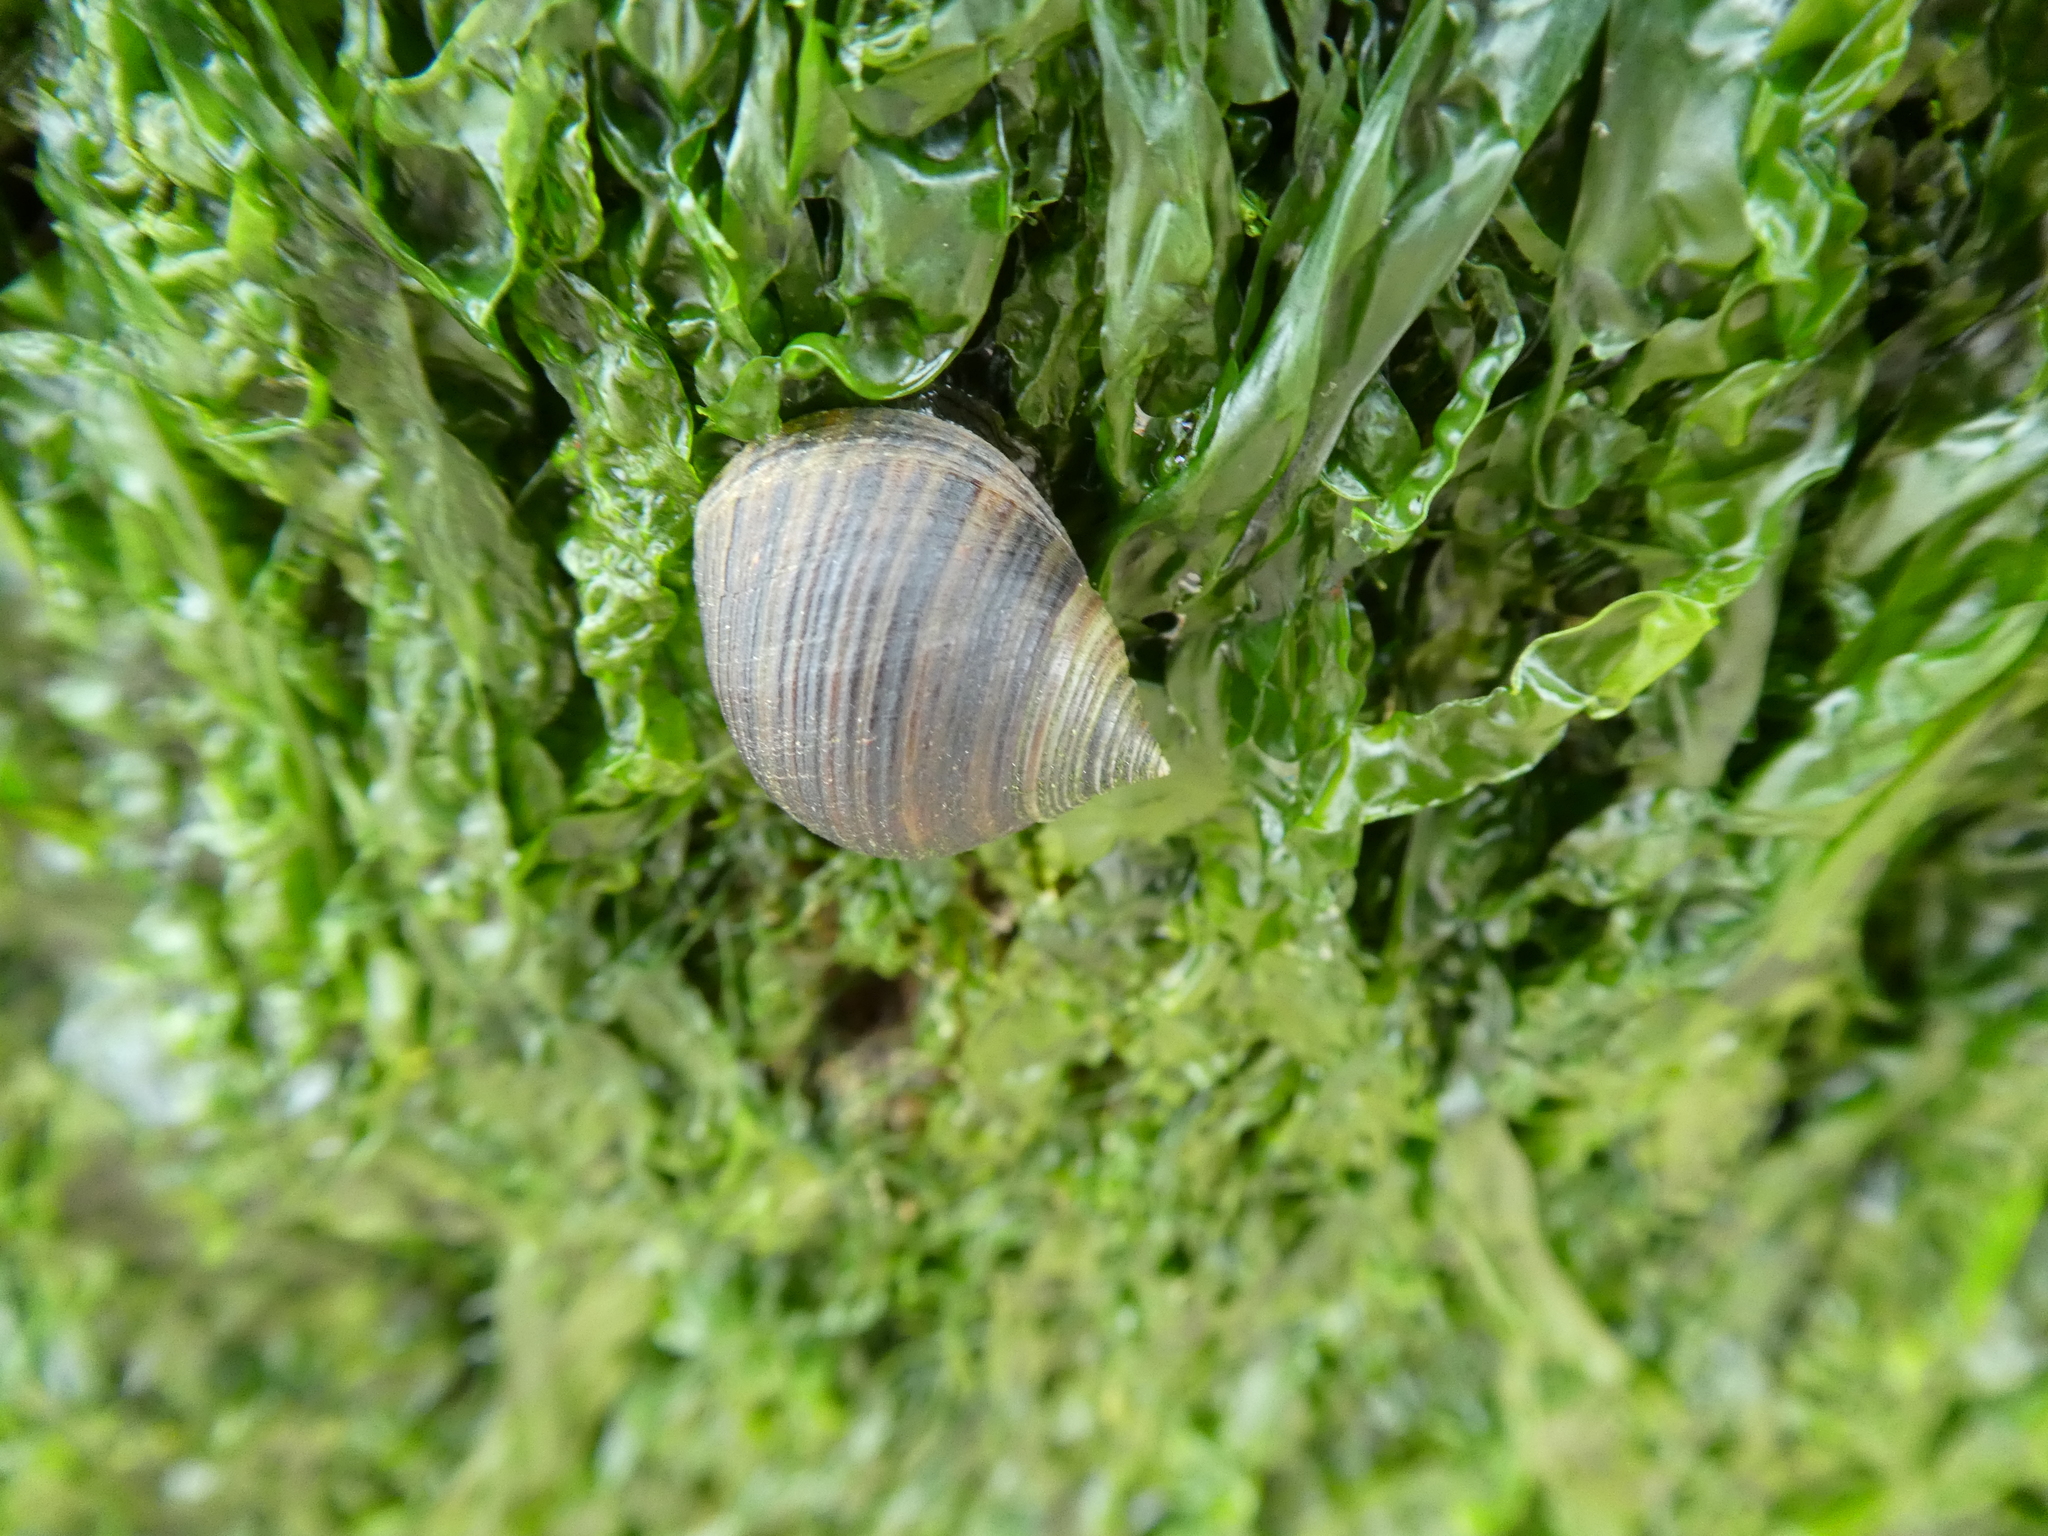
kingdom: Animalia
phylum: Mollusca
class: Gastropoda
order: Littorinimorpha
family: Littorinidae
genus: Littorina
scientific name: Littorina littorea
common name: Common periwinkle
